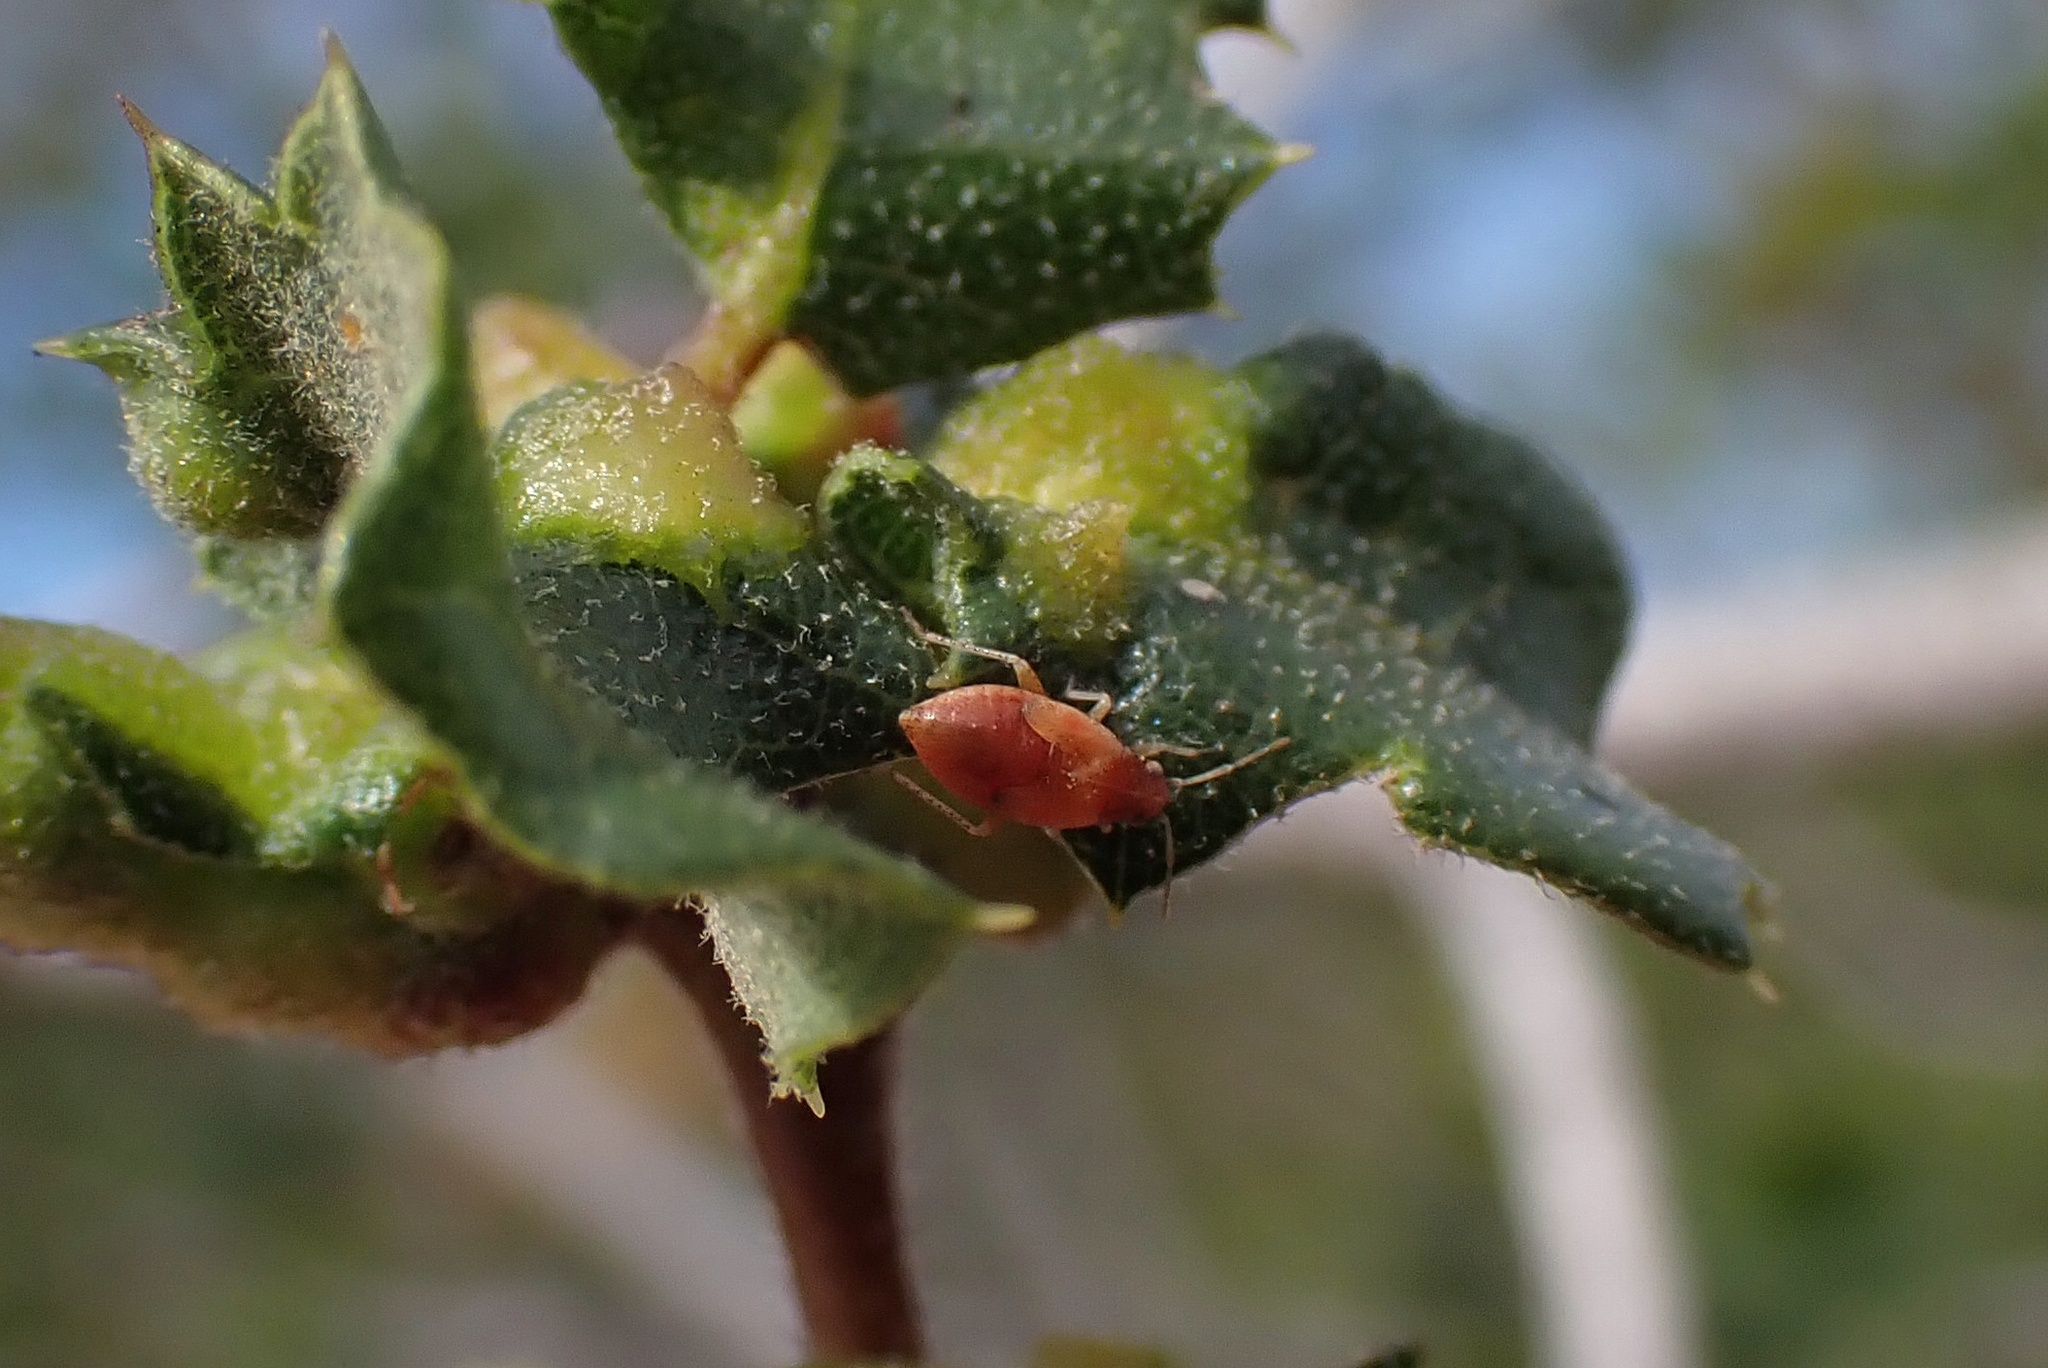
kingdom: Animalia
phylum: Arthropoda
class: Insecta
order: Hymenoptera
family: Cynipidae
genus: Neuroterus
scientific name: Neuroterus saltarius
